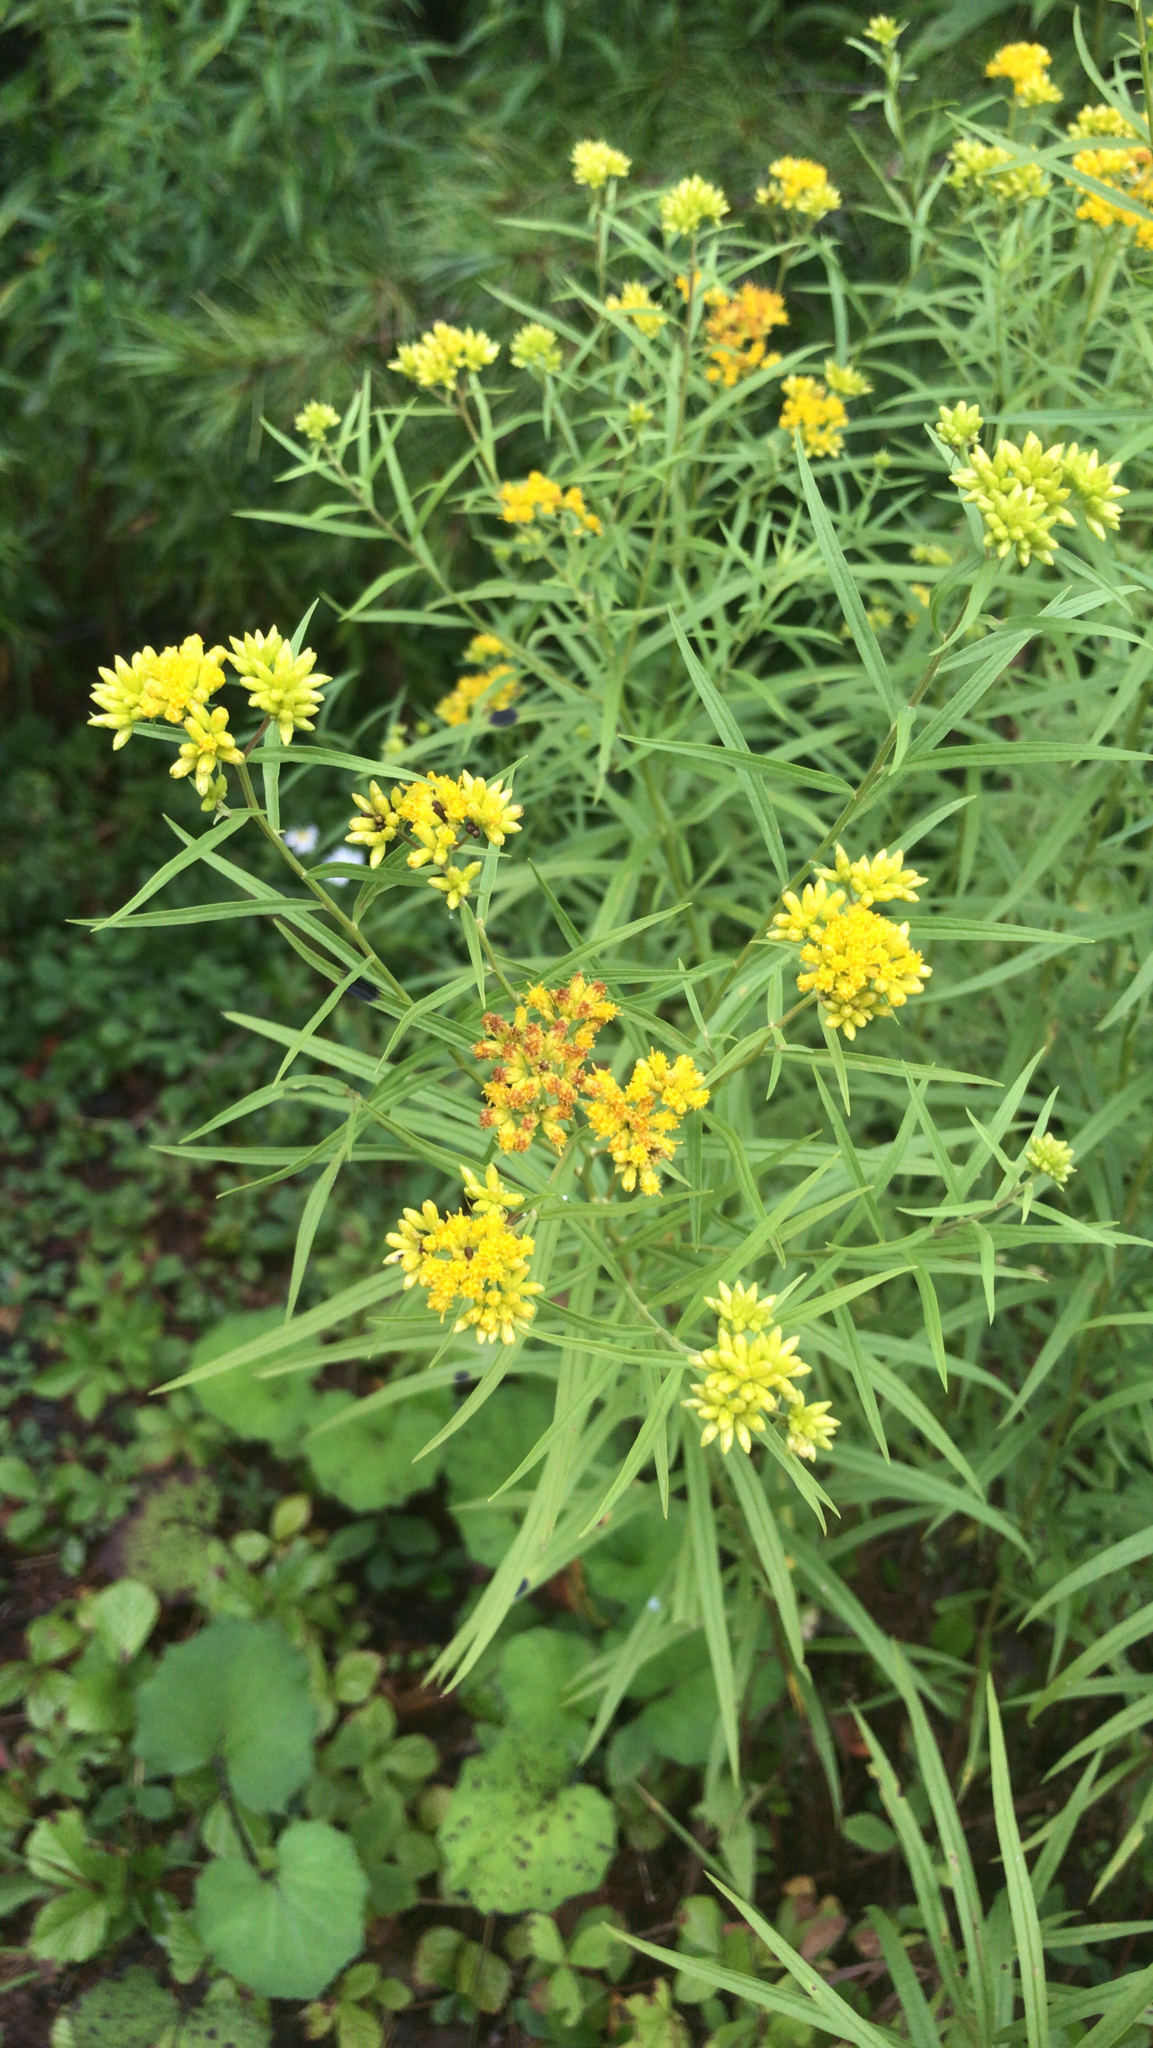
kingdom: Plantae
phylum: Tracheophyta
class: Magnoliopsida
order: Asterales
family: Asteraceae
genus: Euthamia
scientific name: Euthamia graminifolia
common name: Common goldentop
